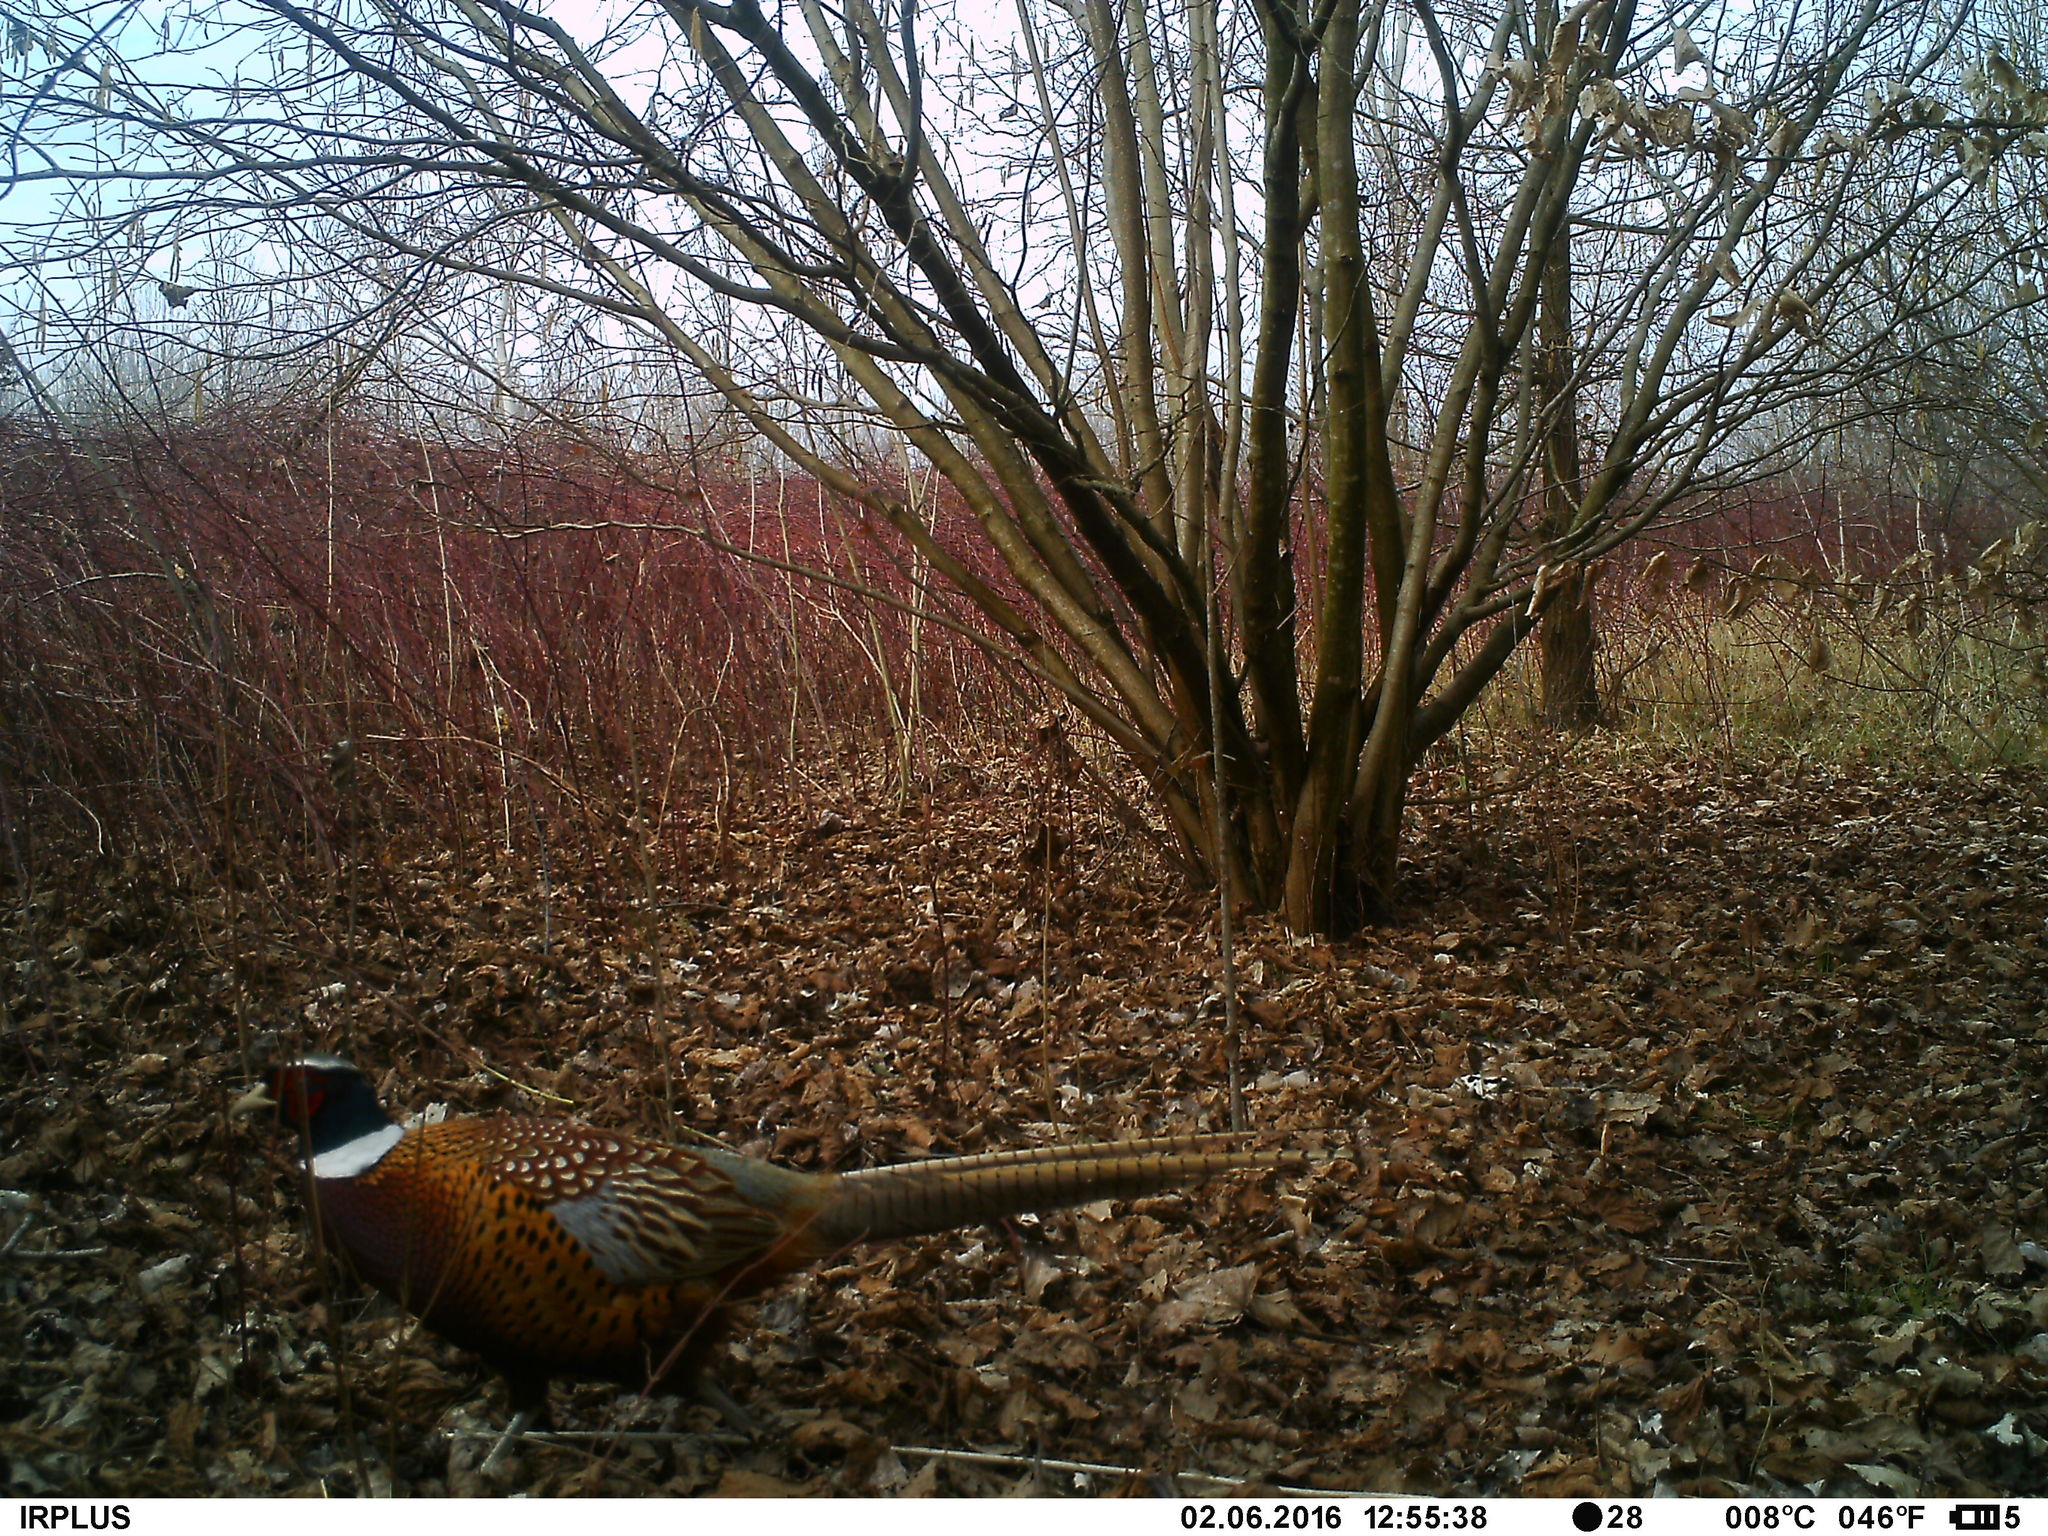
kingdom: Animalia
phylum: Chordata
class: Aves
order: Galliformes
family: Phasianidae
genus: Phasianus
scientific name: Phasianus colchicus
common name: Common pheasant
